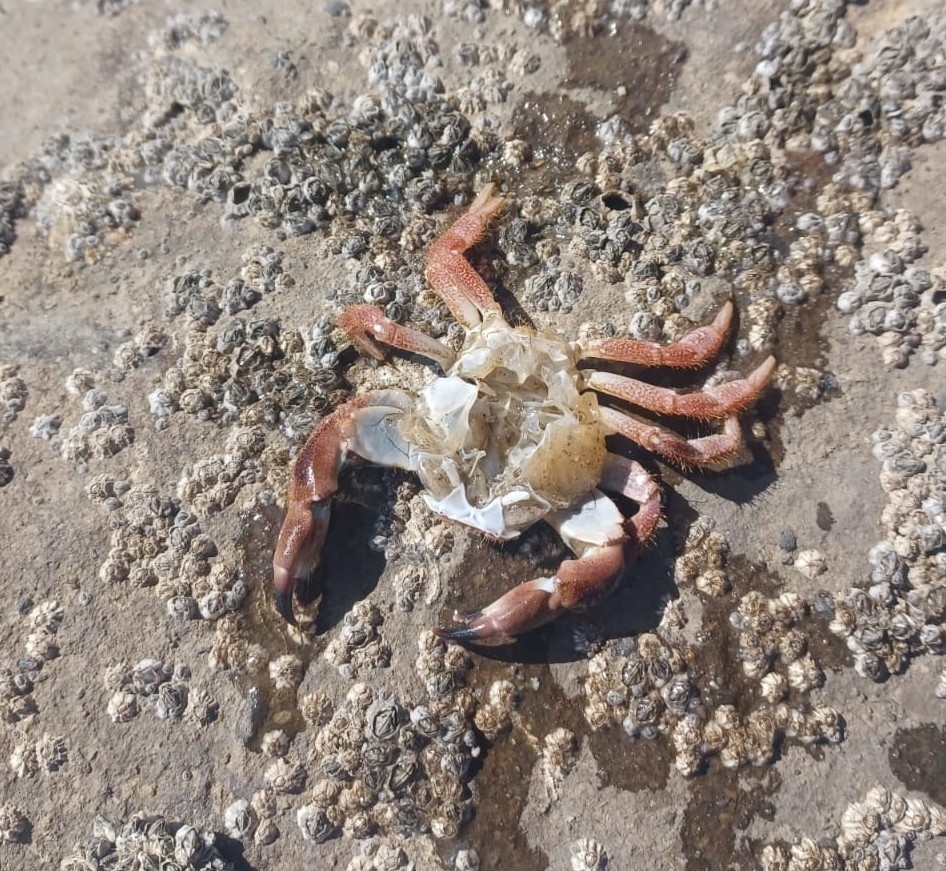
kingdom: Animalia
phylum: Arthropoda
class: Malacostraca
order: Decapoda
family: Cancridae
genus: Cancer
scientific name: Cancer pagurus
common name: Edible crab
